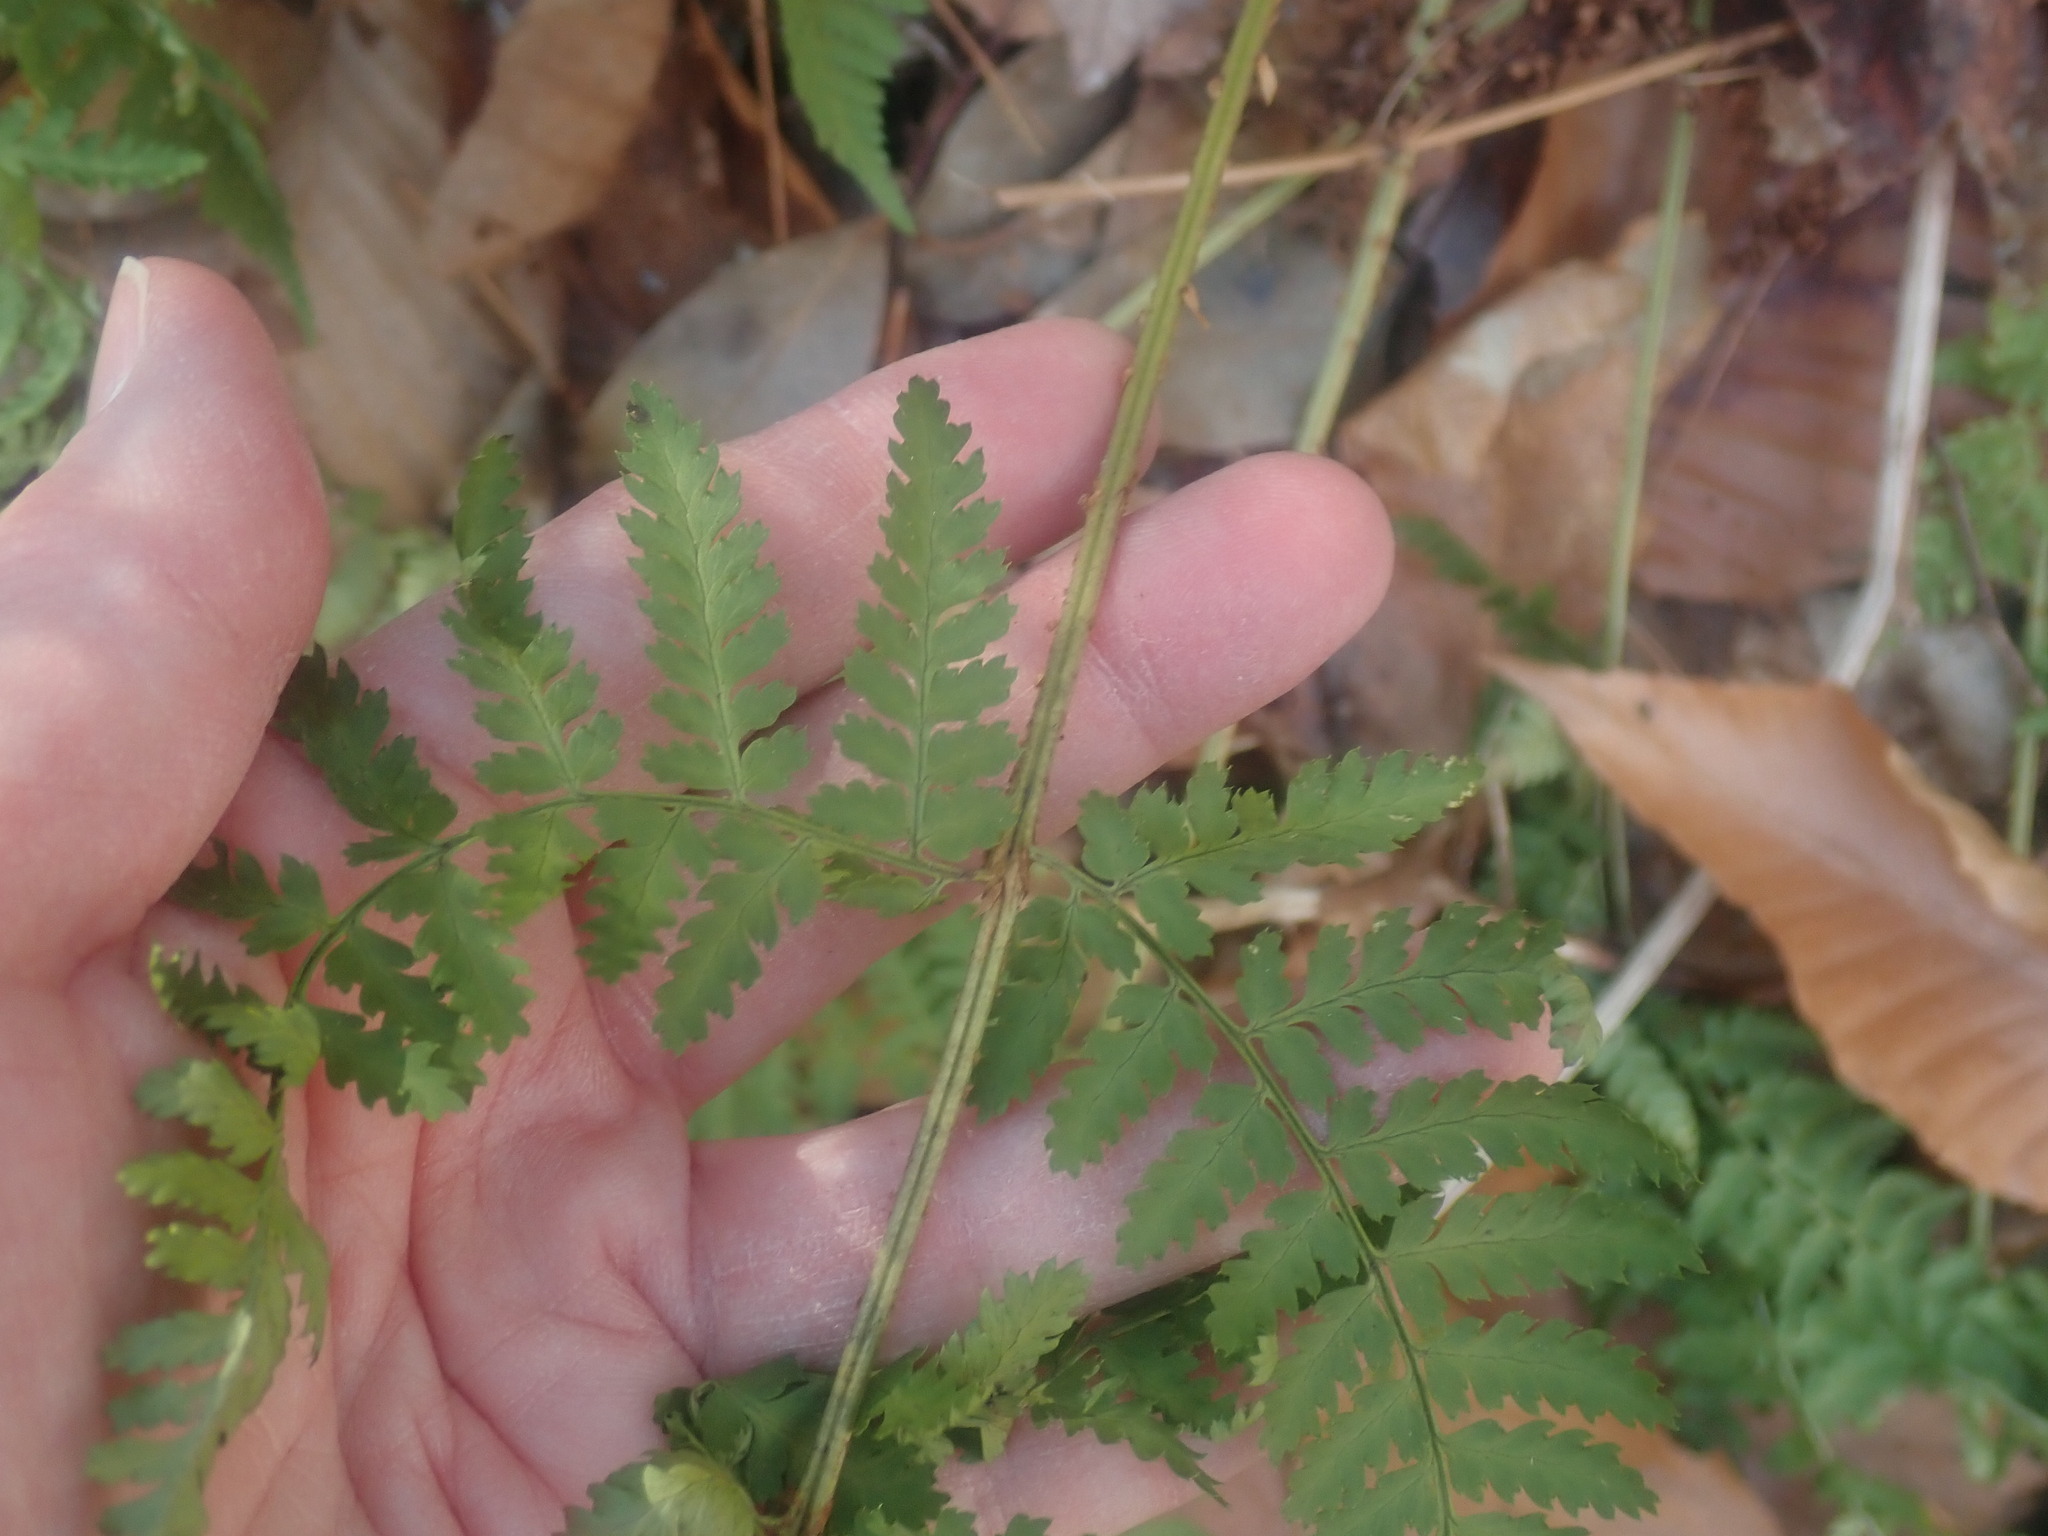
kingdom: Plantae
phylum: Tracheophyta
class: Polypodiopsida
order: Polypodiales
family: Dryopteridaceae
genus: Dryopteris
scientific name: Dryopteris intermedia
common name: Evergreen wood fern
